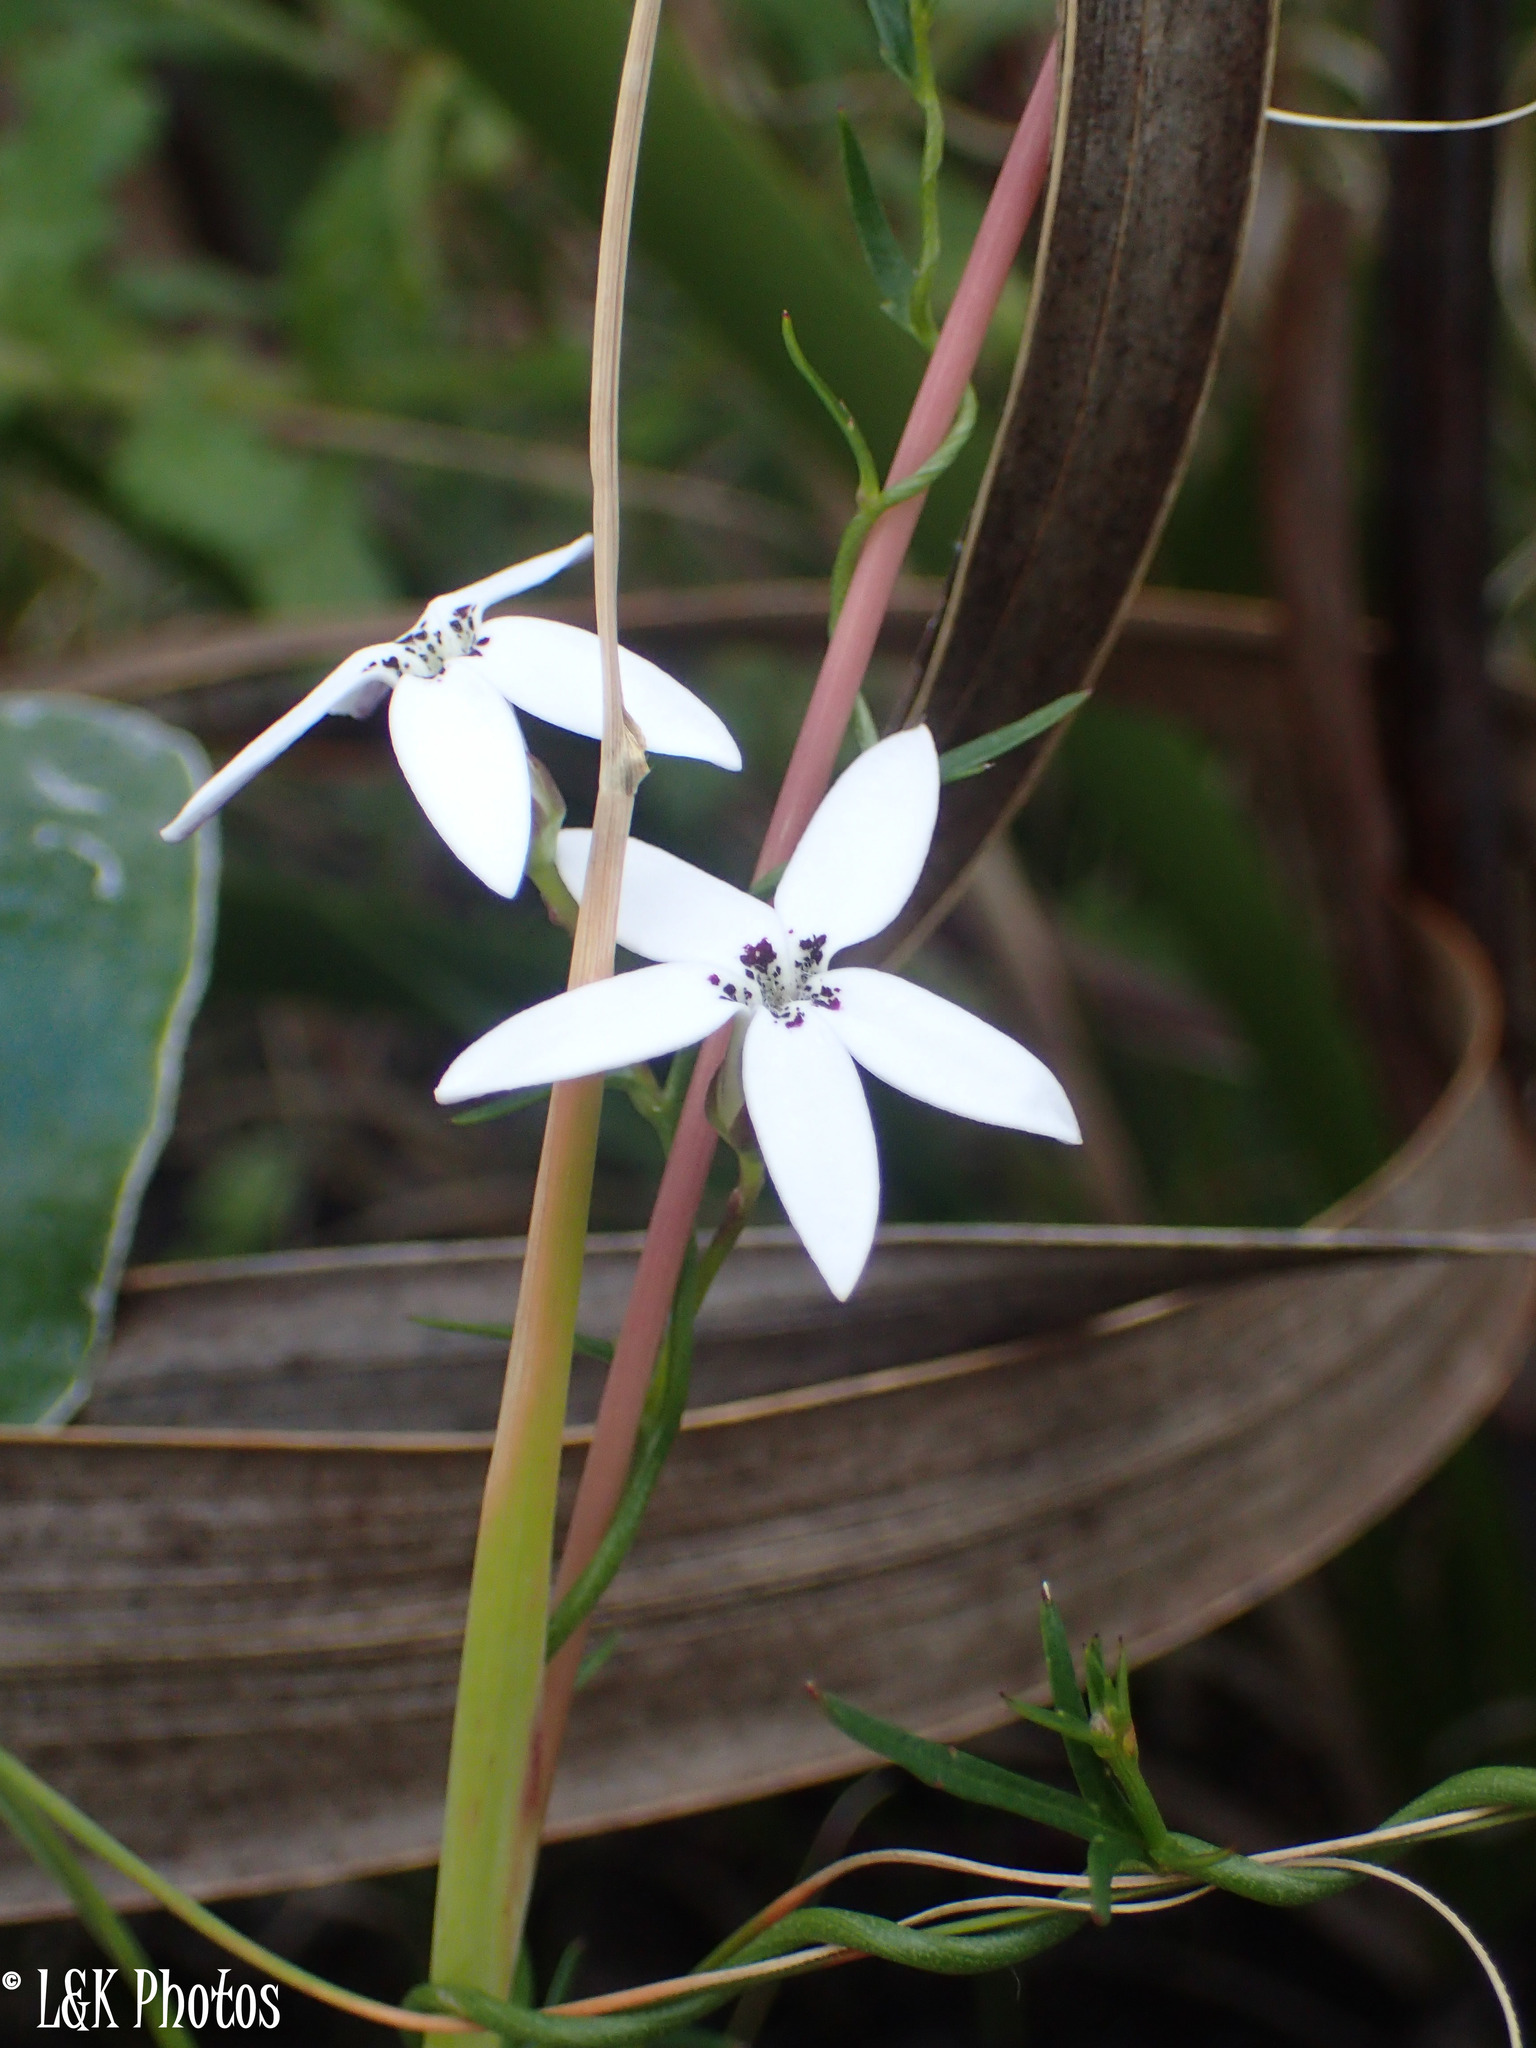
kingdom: Plantae
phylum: Tracheophyta
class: Magnoliopsida
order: Asterales
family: Campanulaceae
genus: Cyphia
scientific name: Cyphia volubilis
